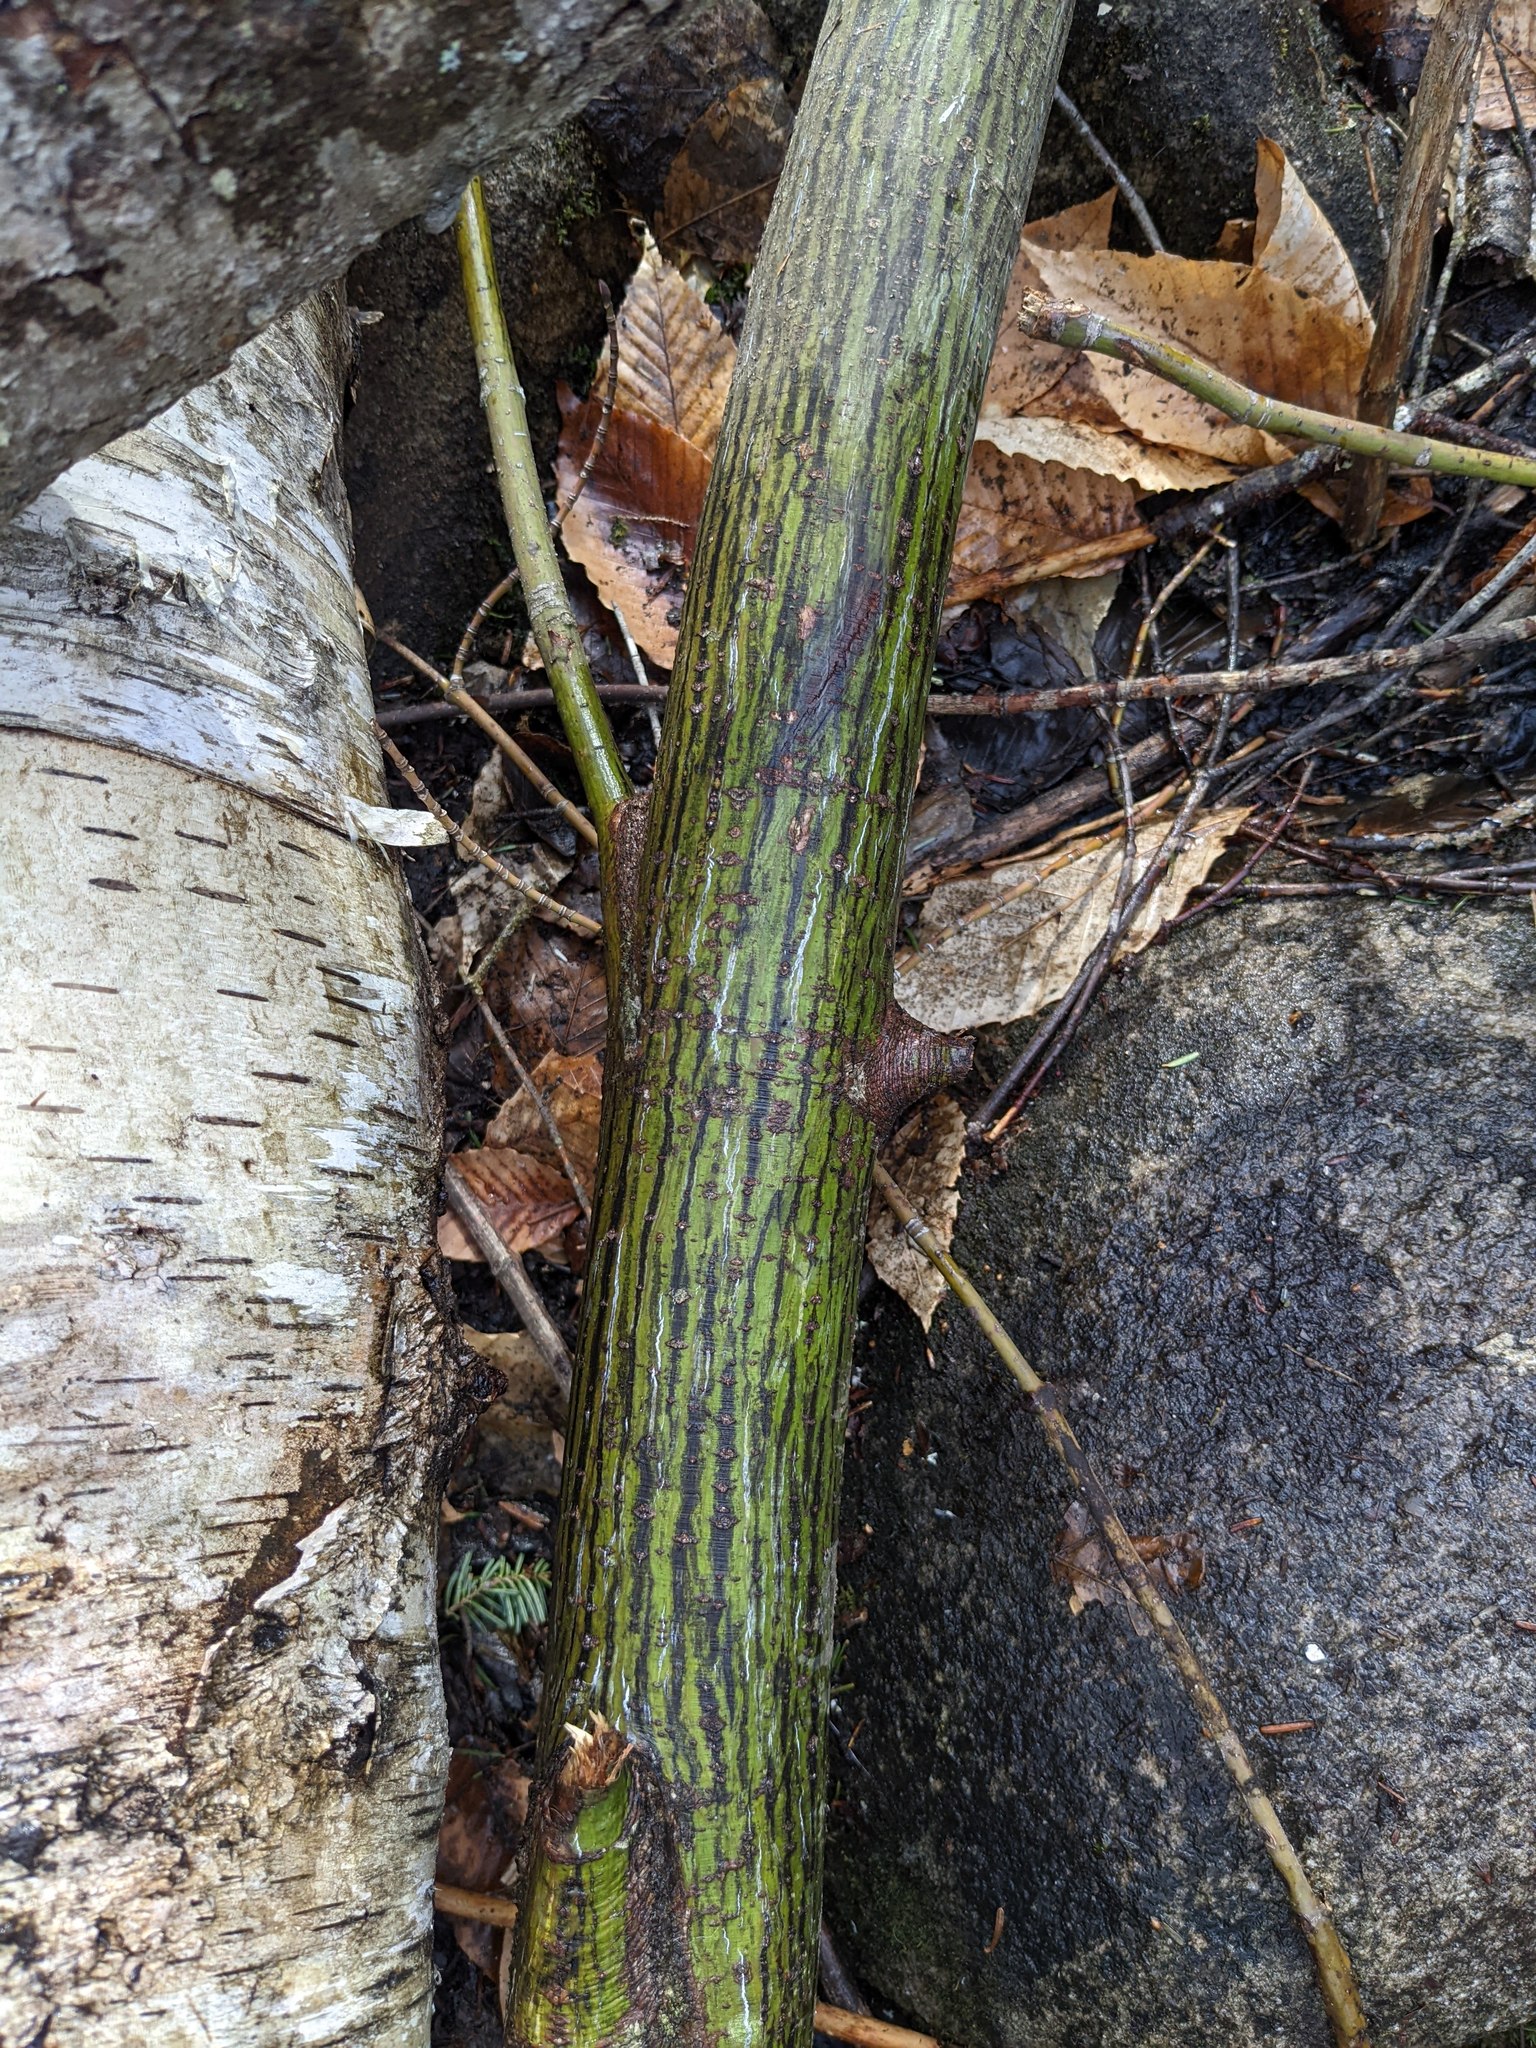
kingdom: Plantae
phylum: Tracheophyta
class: Magnoliopsida
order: Sapindales
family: Sapindaceae
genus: Acer
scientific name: Acer pensylvanicum
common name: Moosewood
